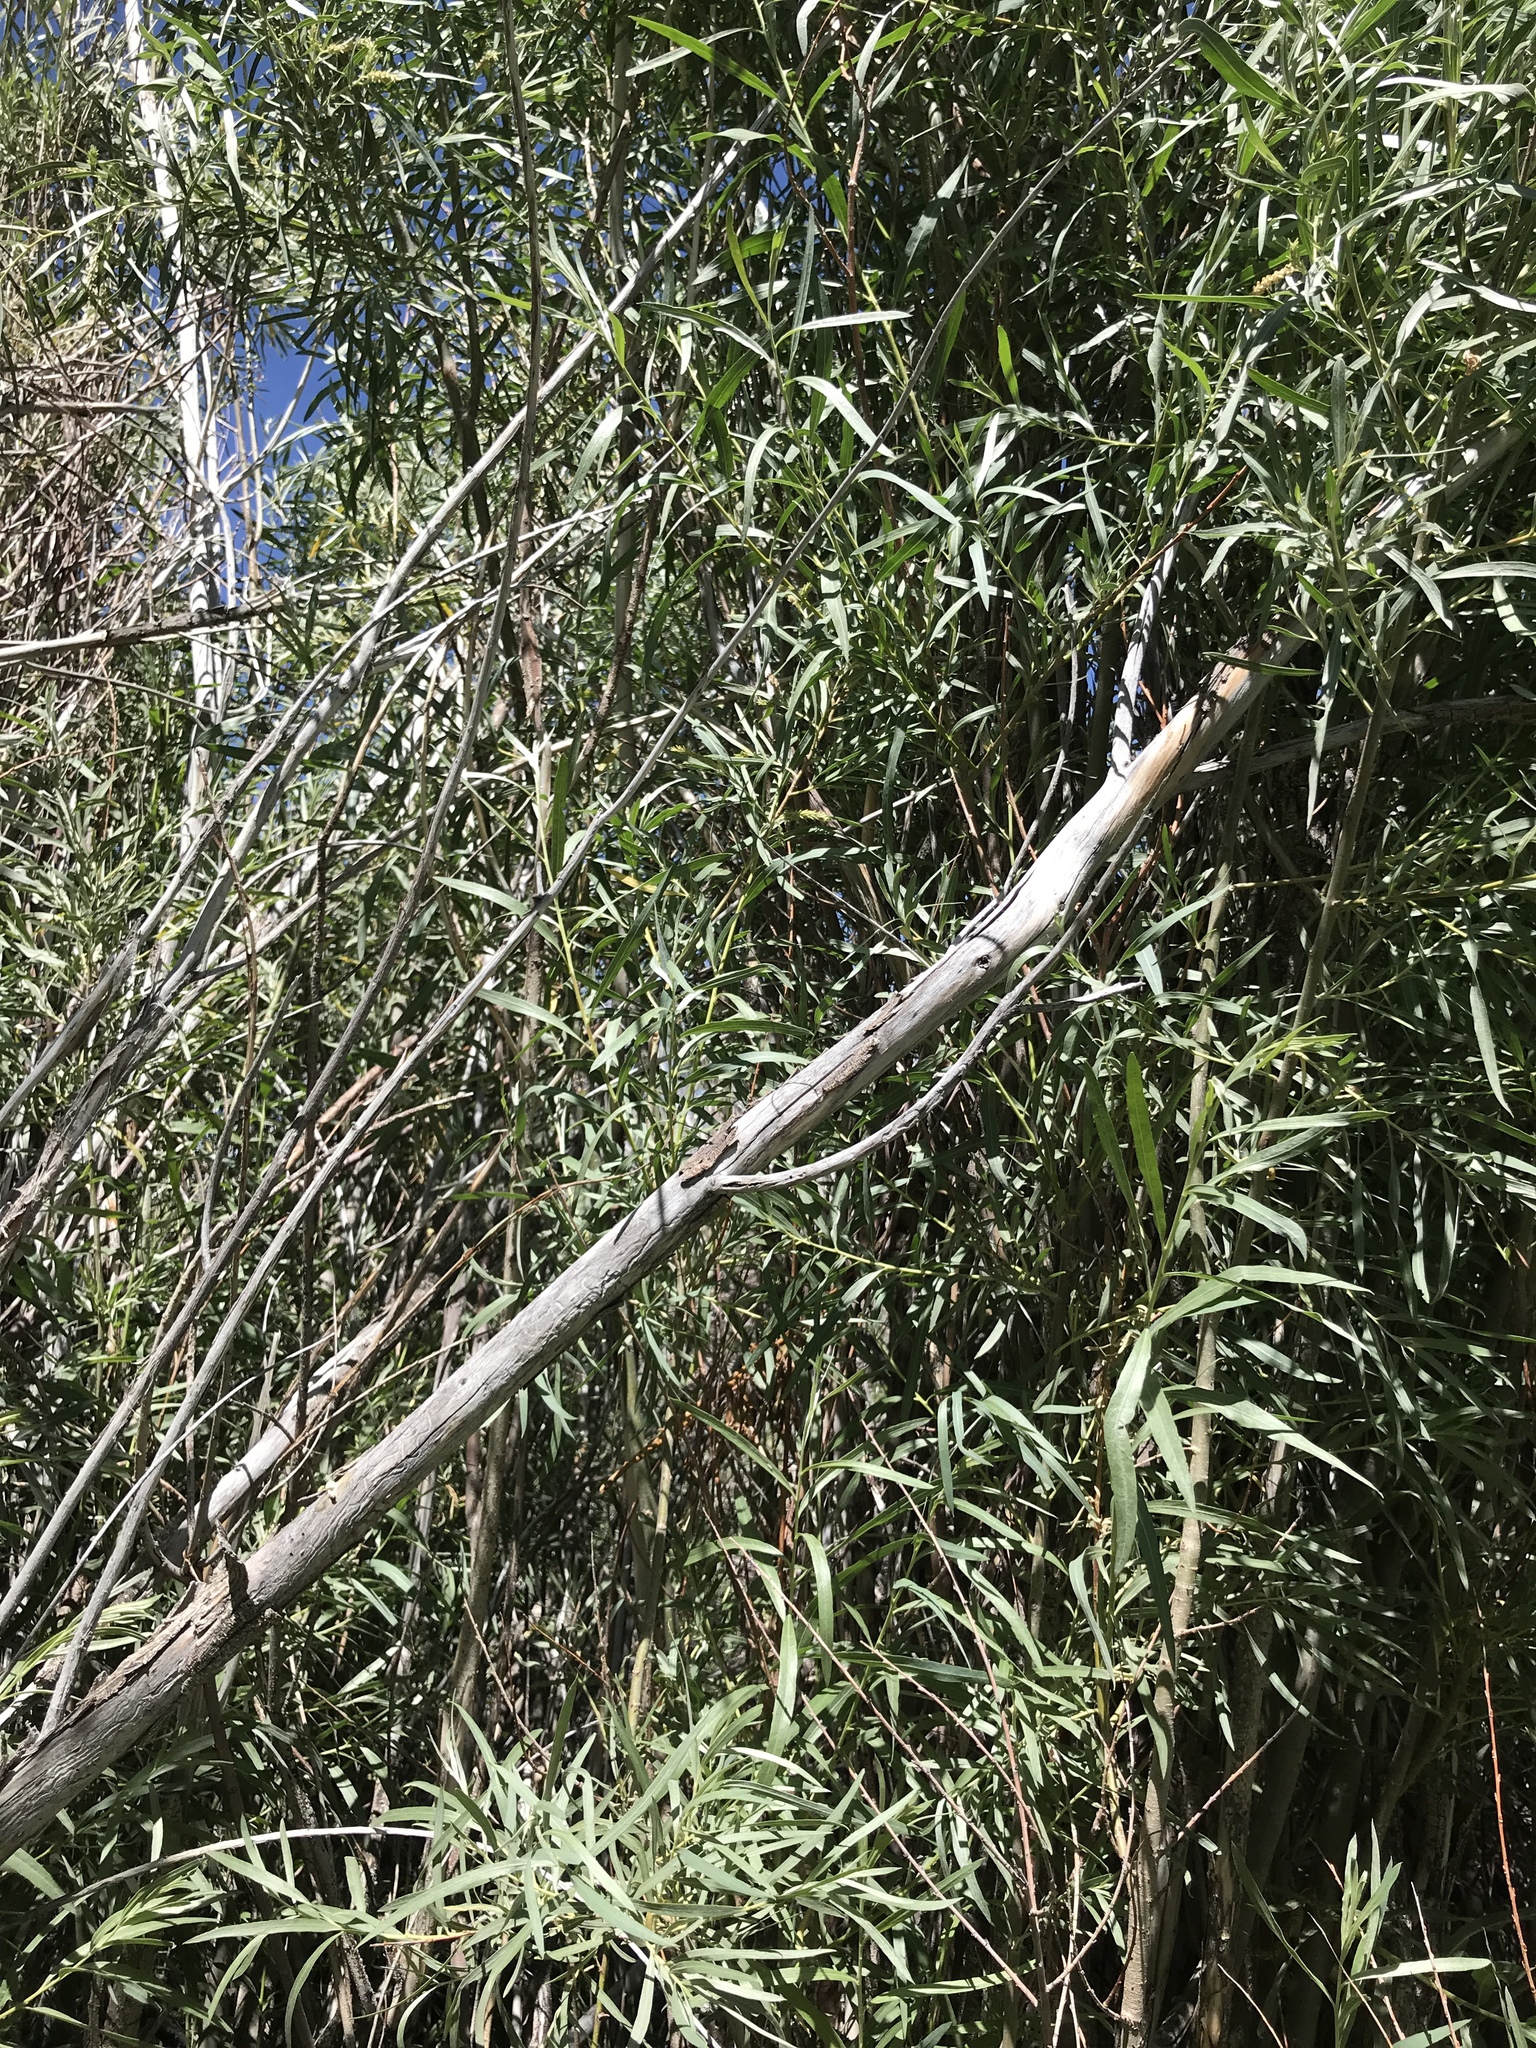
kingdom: Plantae
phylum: Tracheophyta
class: Magnoliopsida
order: Malpighiales
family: Salicaceae
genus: Salix
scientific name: Salix exigua
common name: Coyote willow
